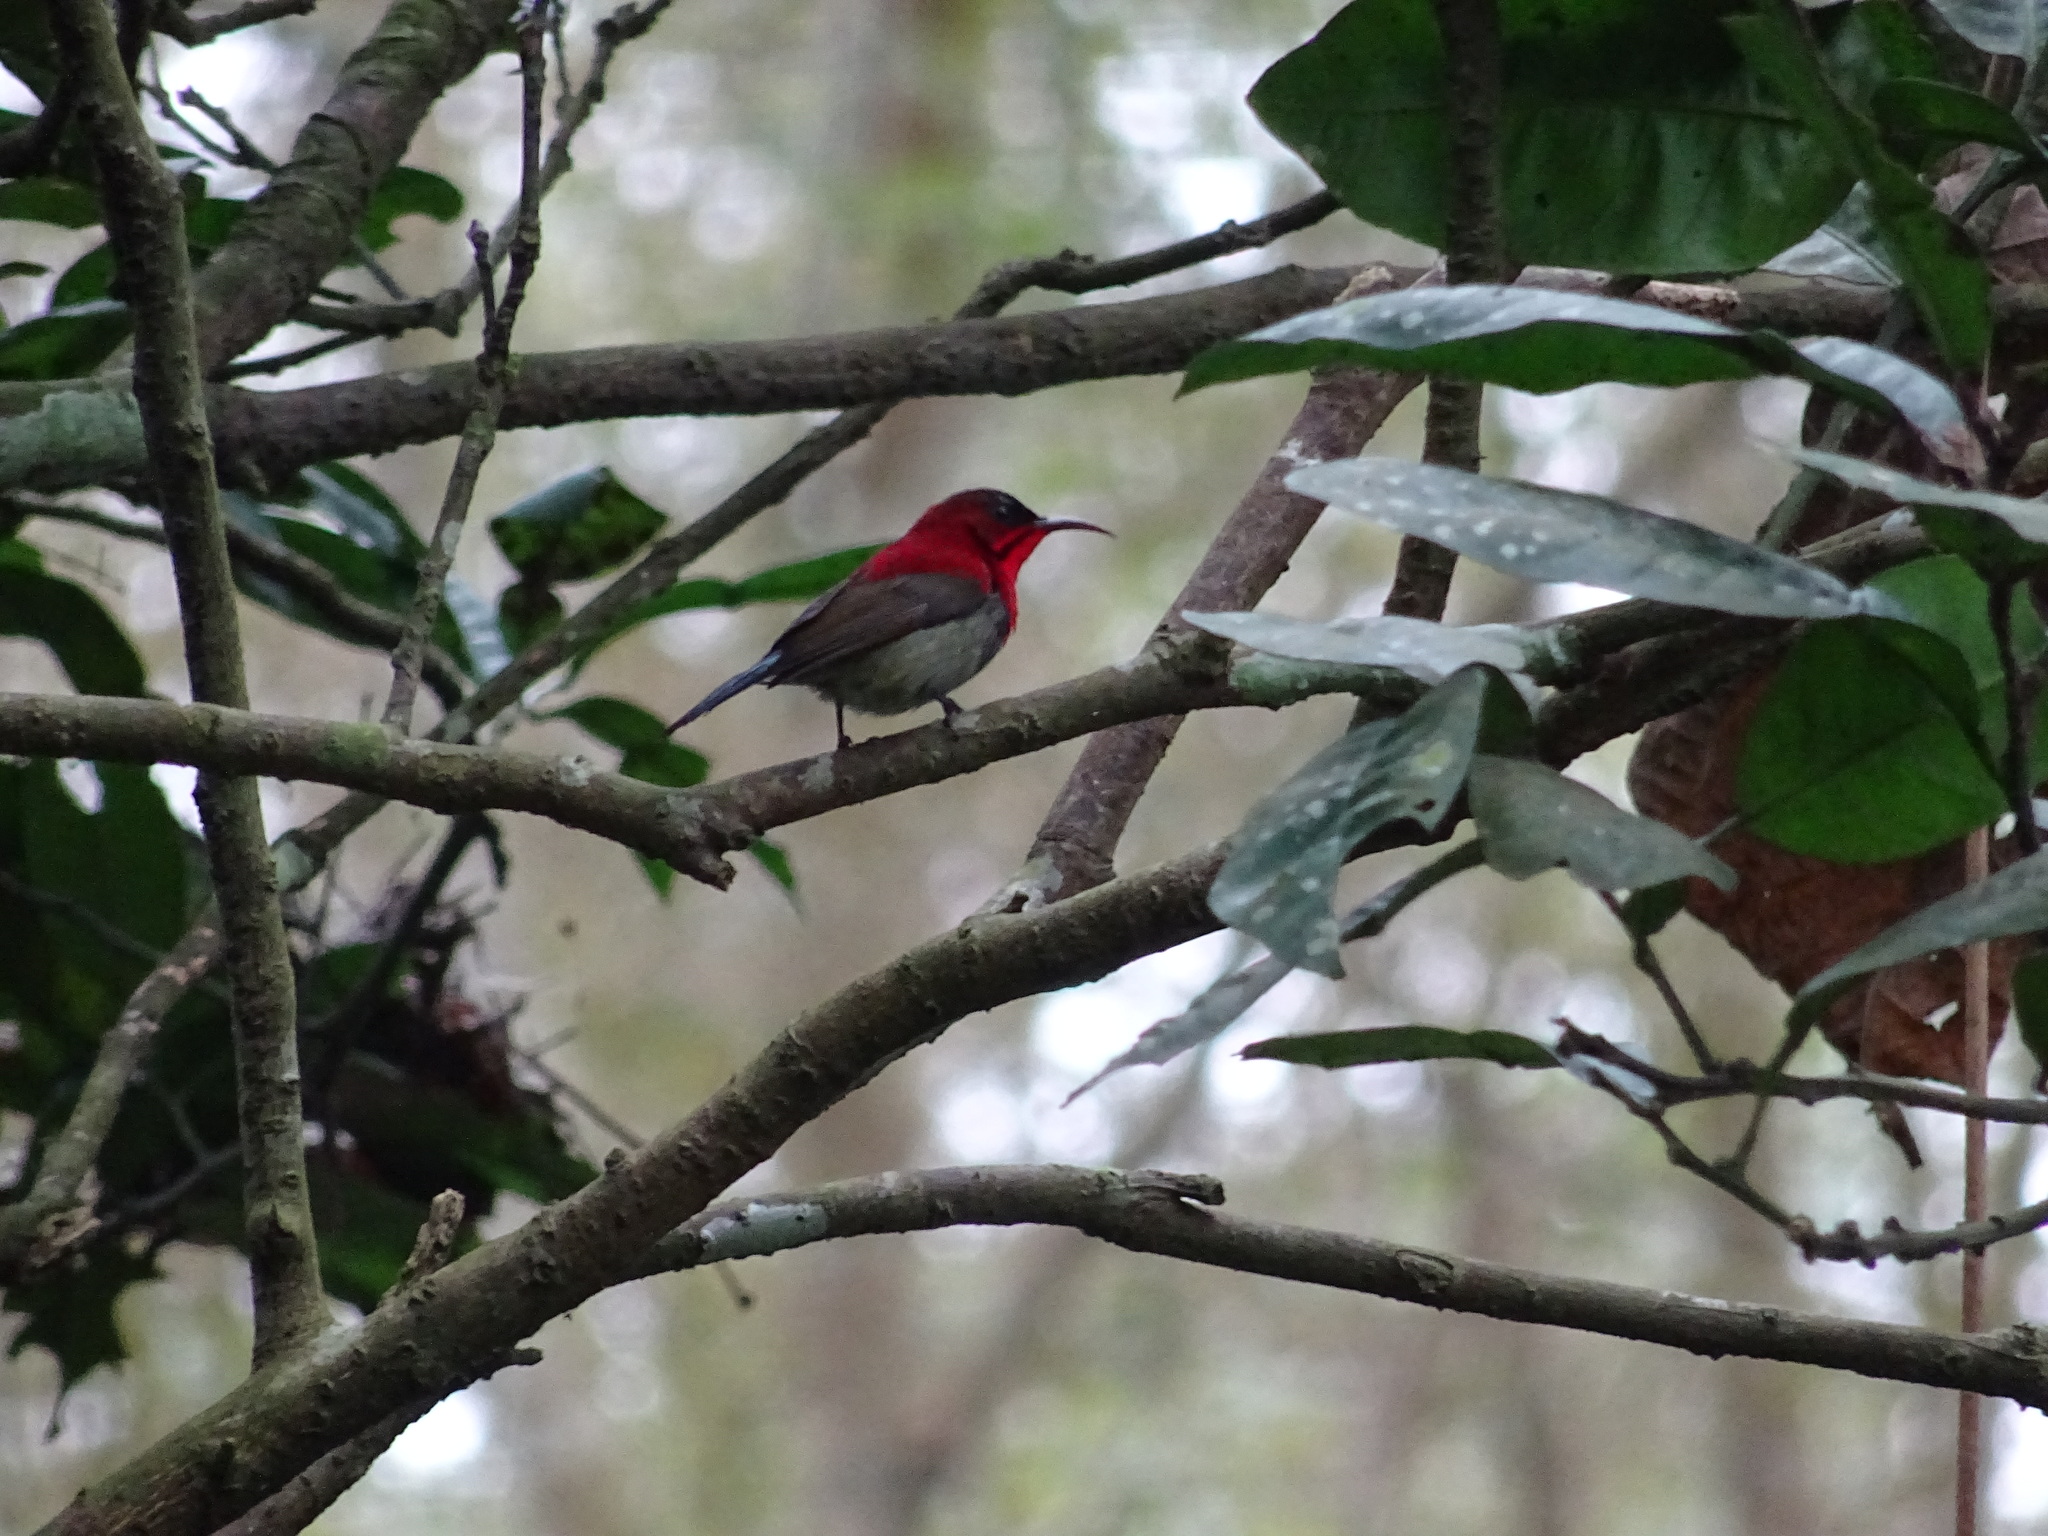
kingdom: Animalia
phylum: Chordata
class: Aves
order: Passeriformes
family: Nectariniidae
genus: Aethopyga
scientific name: Aethopyga siparaja
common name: Crimson sunbird
